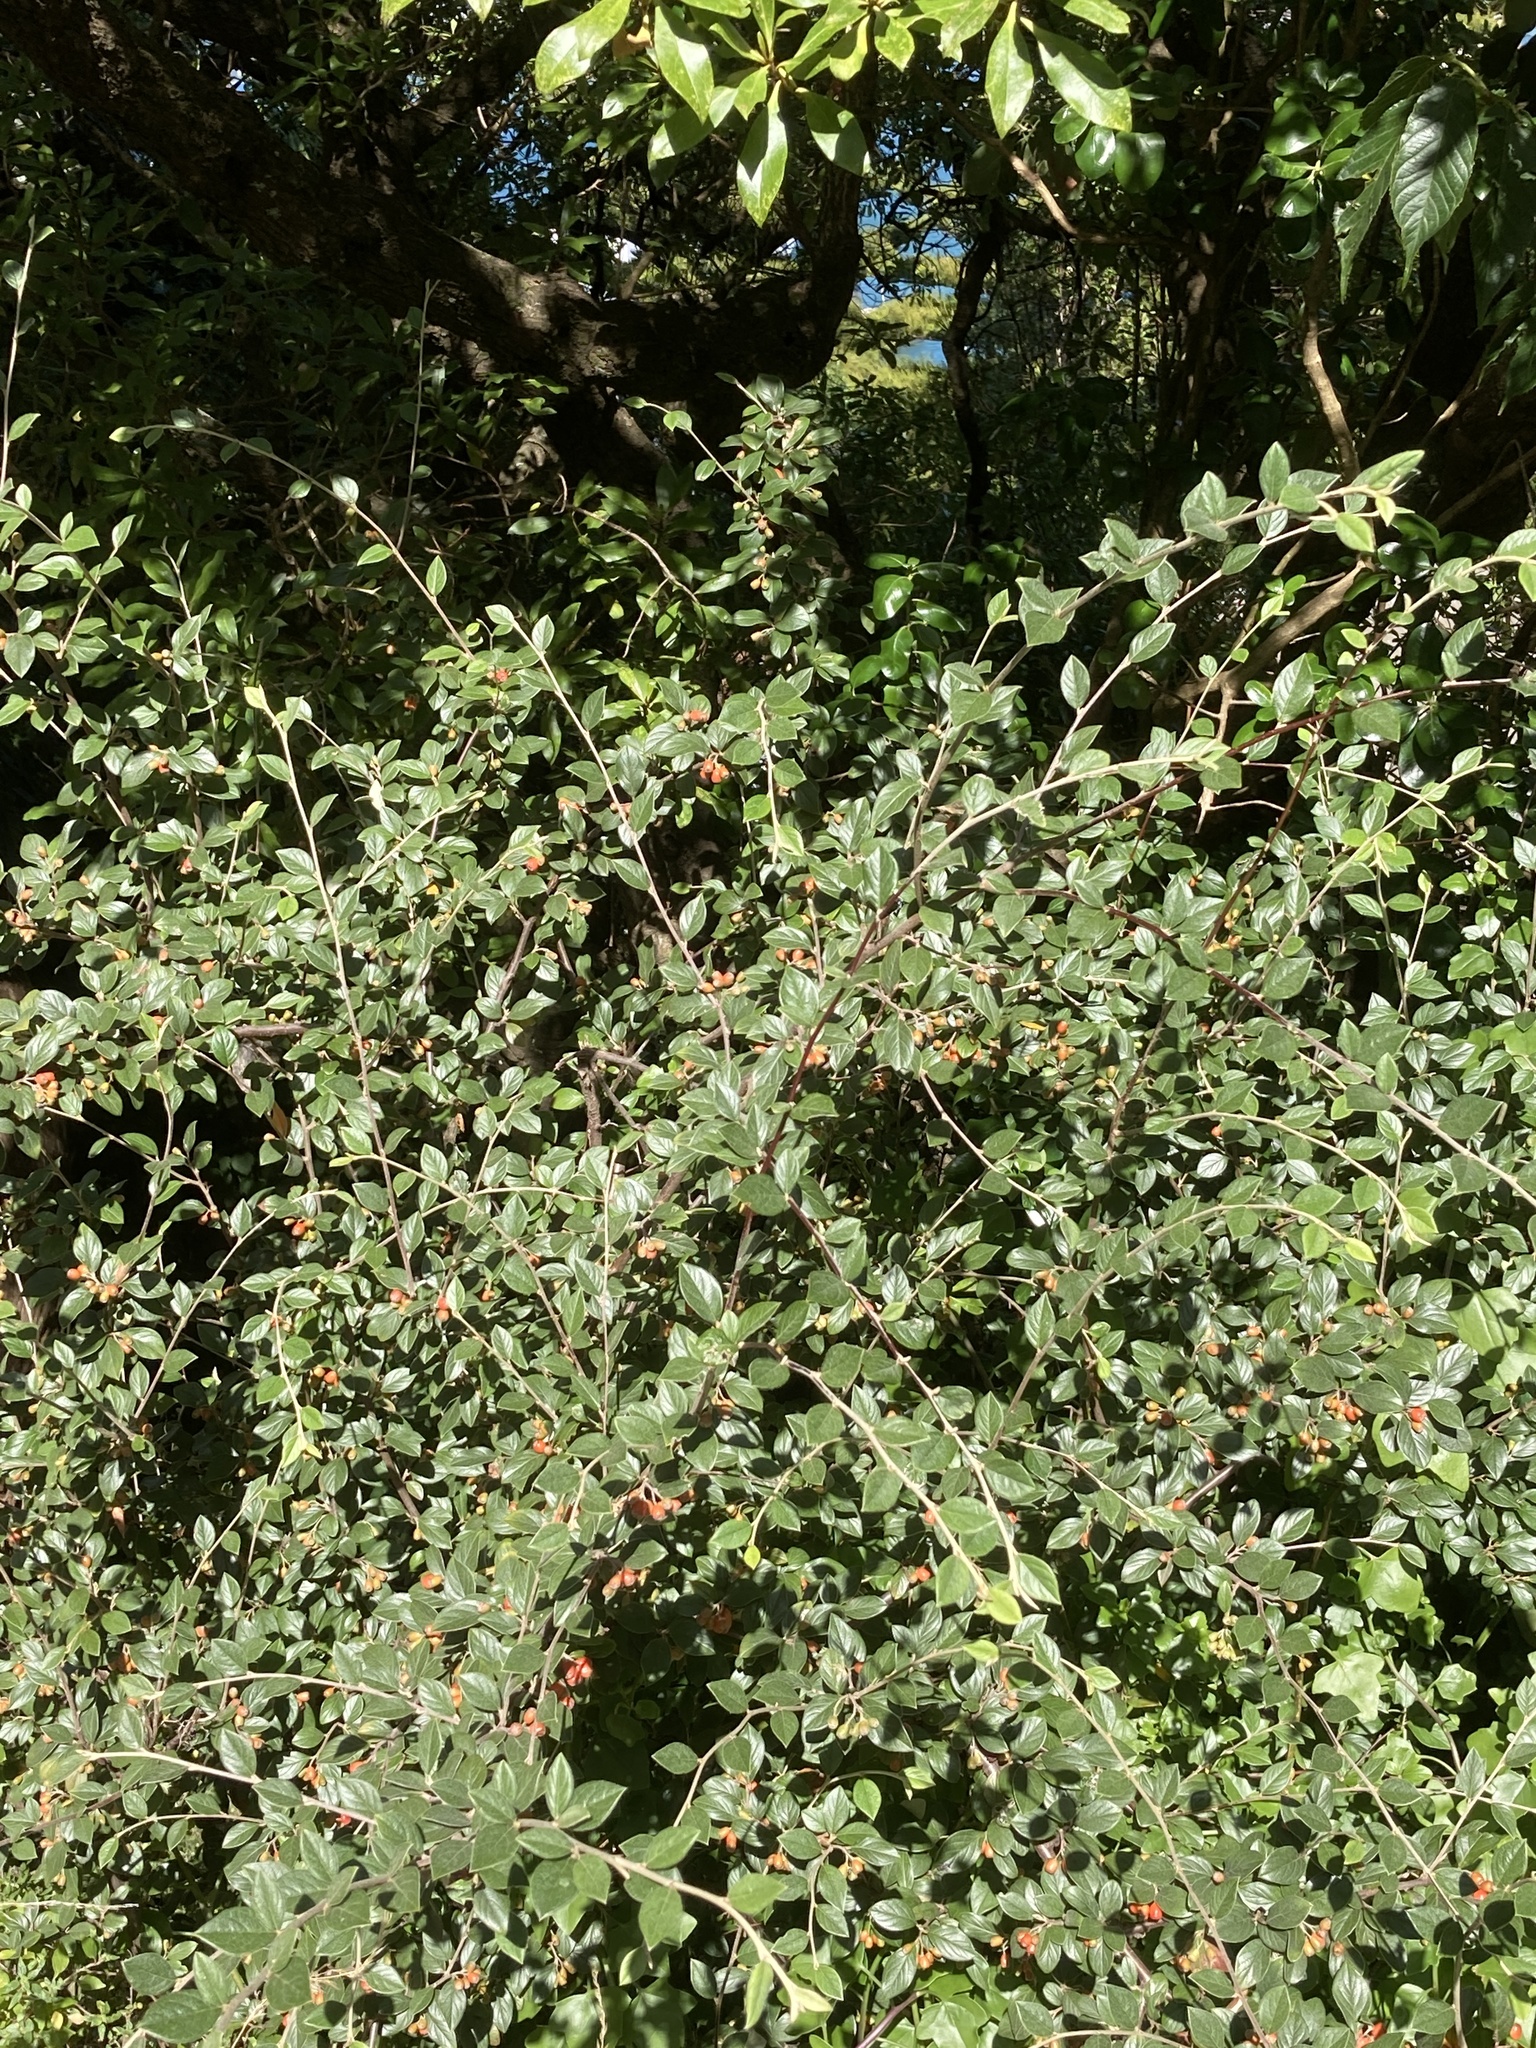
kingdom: Plantae
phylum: Tracheophyta
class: Magnoliopsida
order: Rosales
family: Rosaceae
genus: Cotoneaster
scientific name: Cotoneaster franchetii
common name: Franchet's cotoneaster
